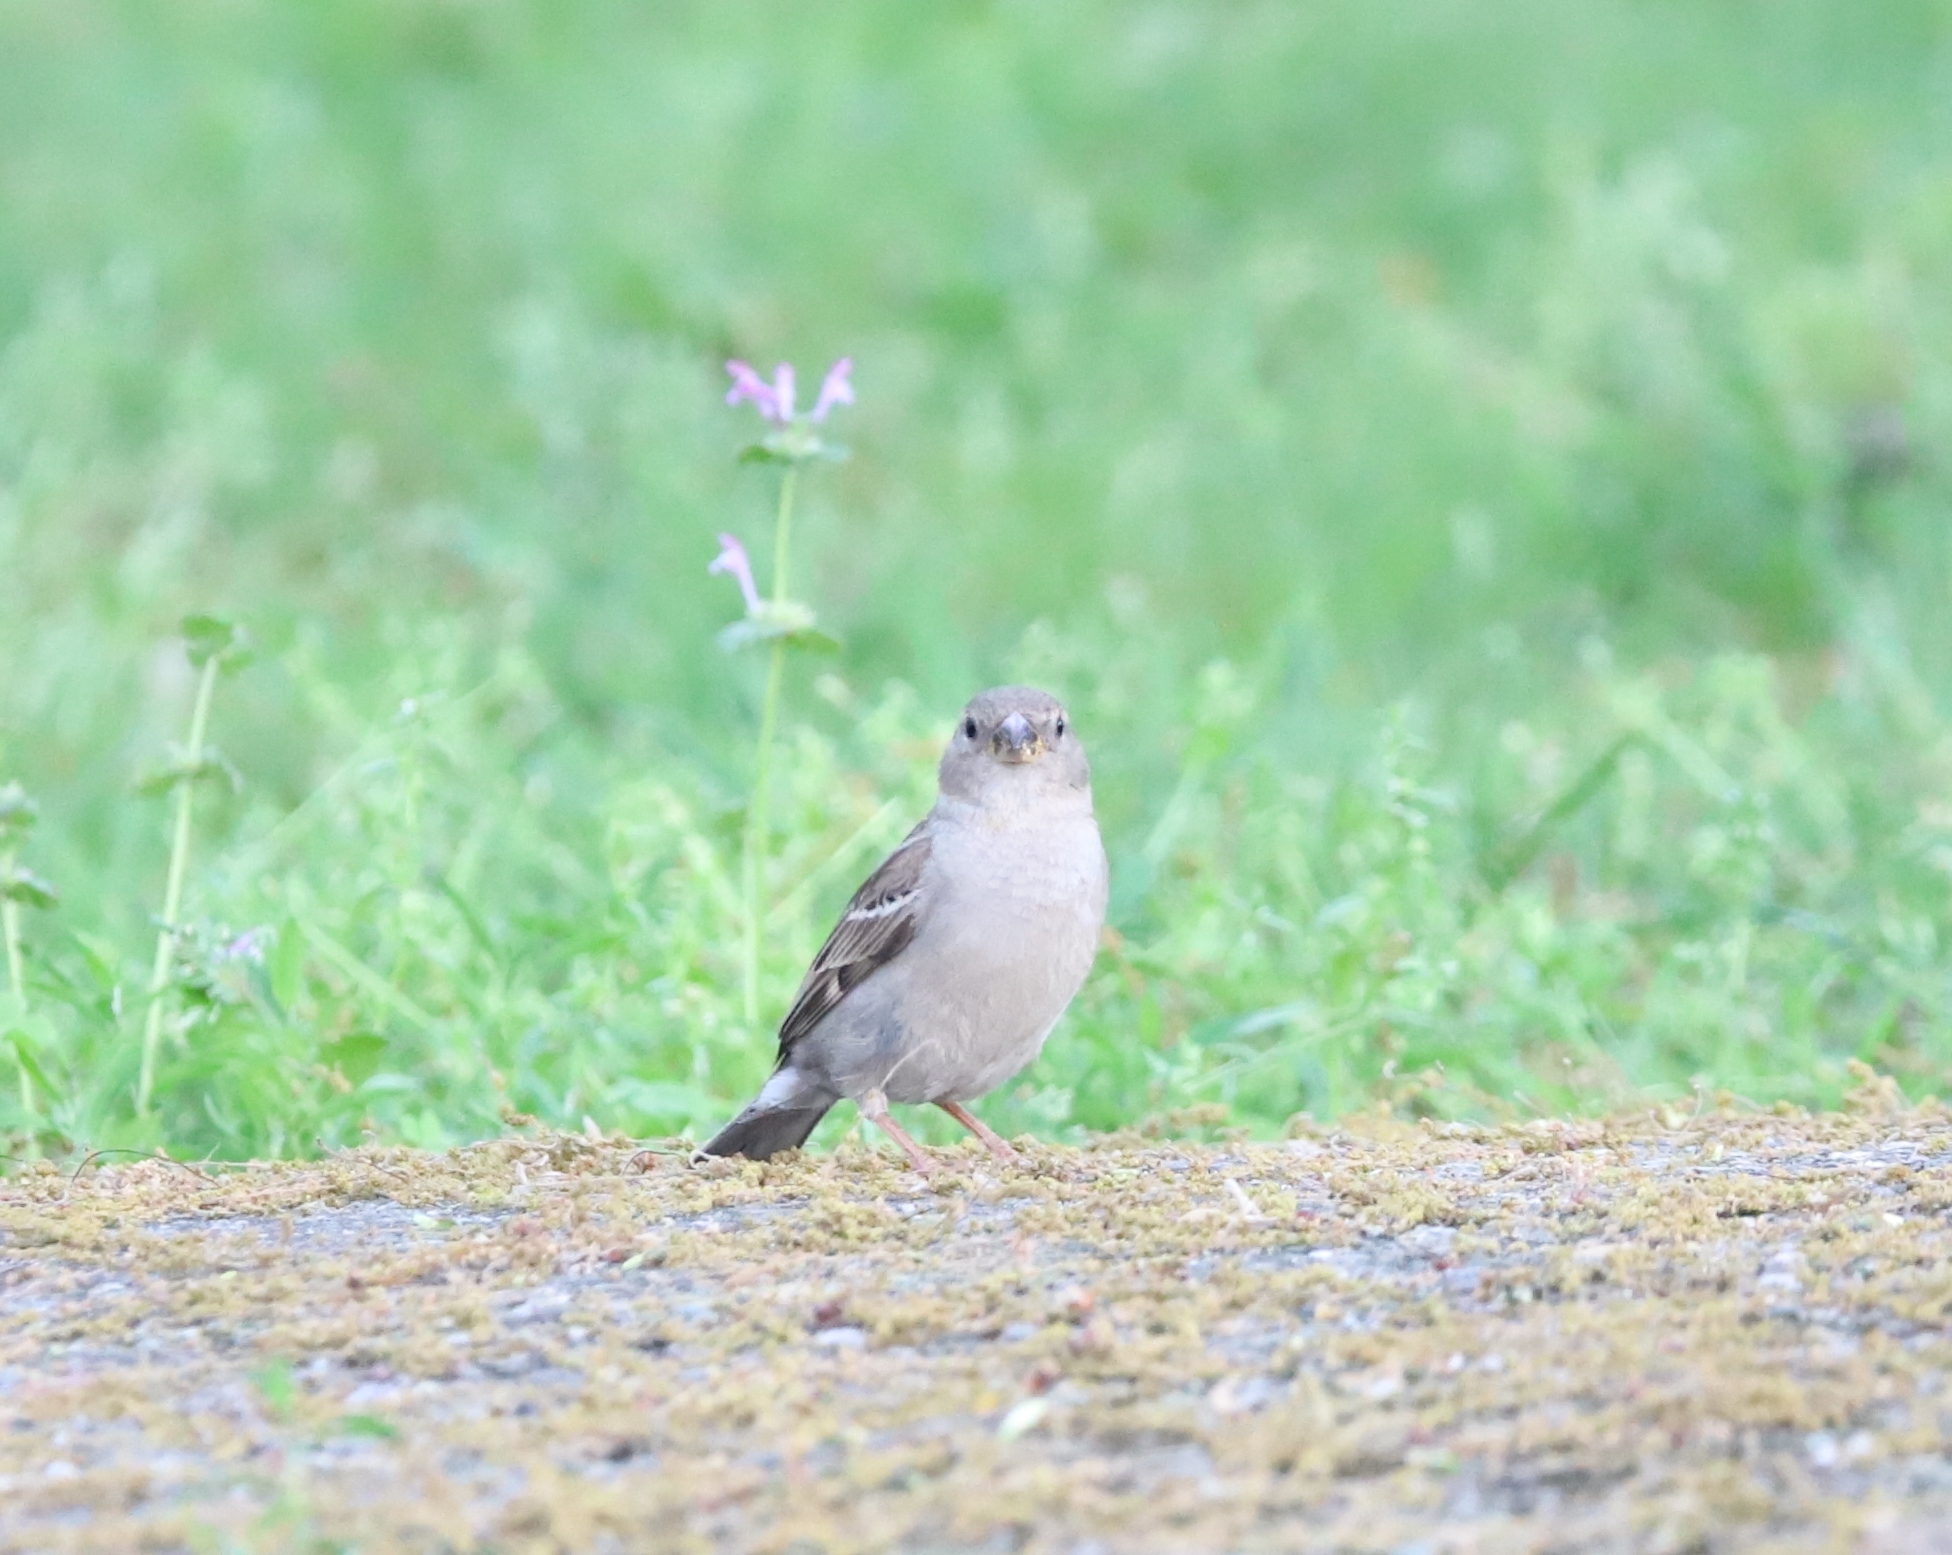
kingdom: Animalia
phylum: Chordata
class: Aves
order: Passeriformes
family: Passeridae
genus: Passer
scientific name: Passer domesticus
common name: House sparrow
